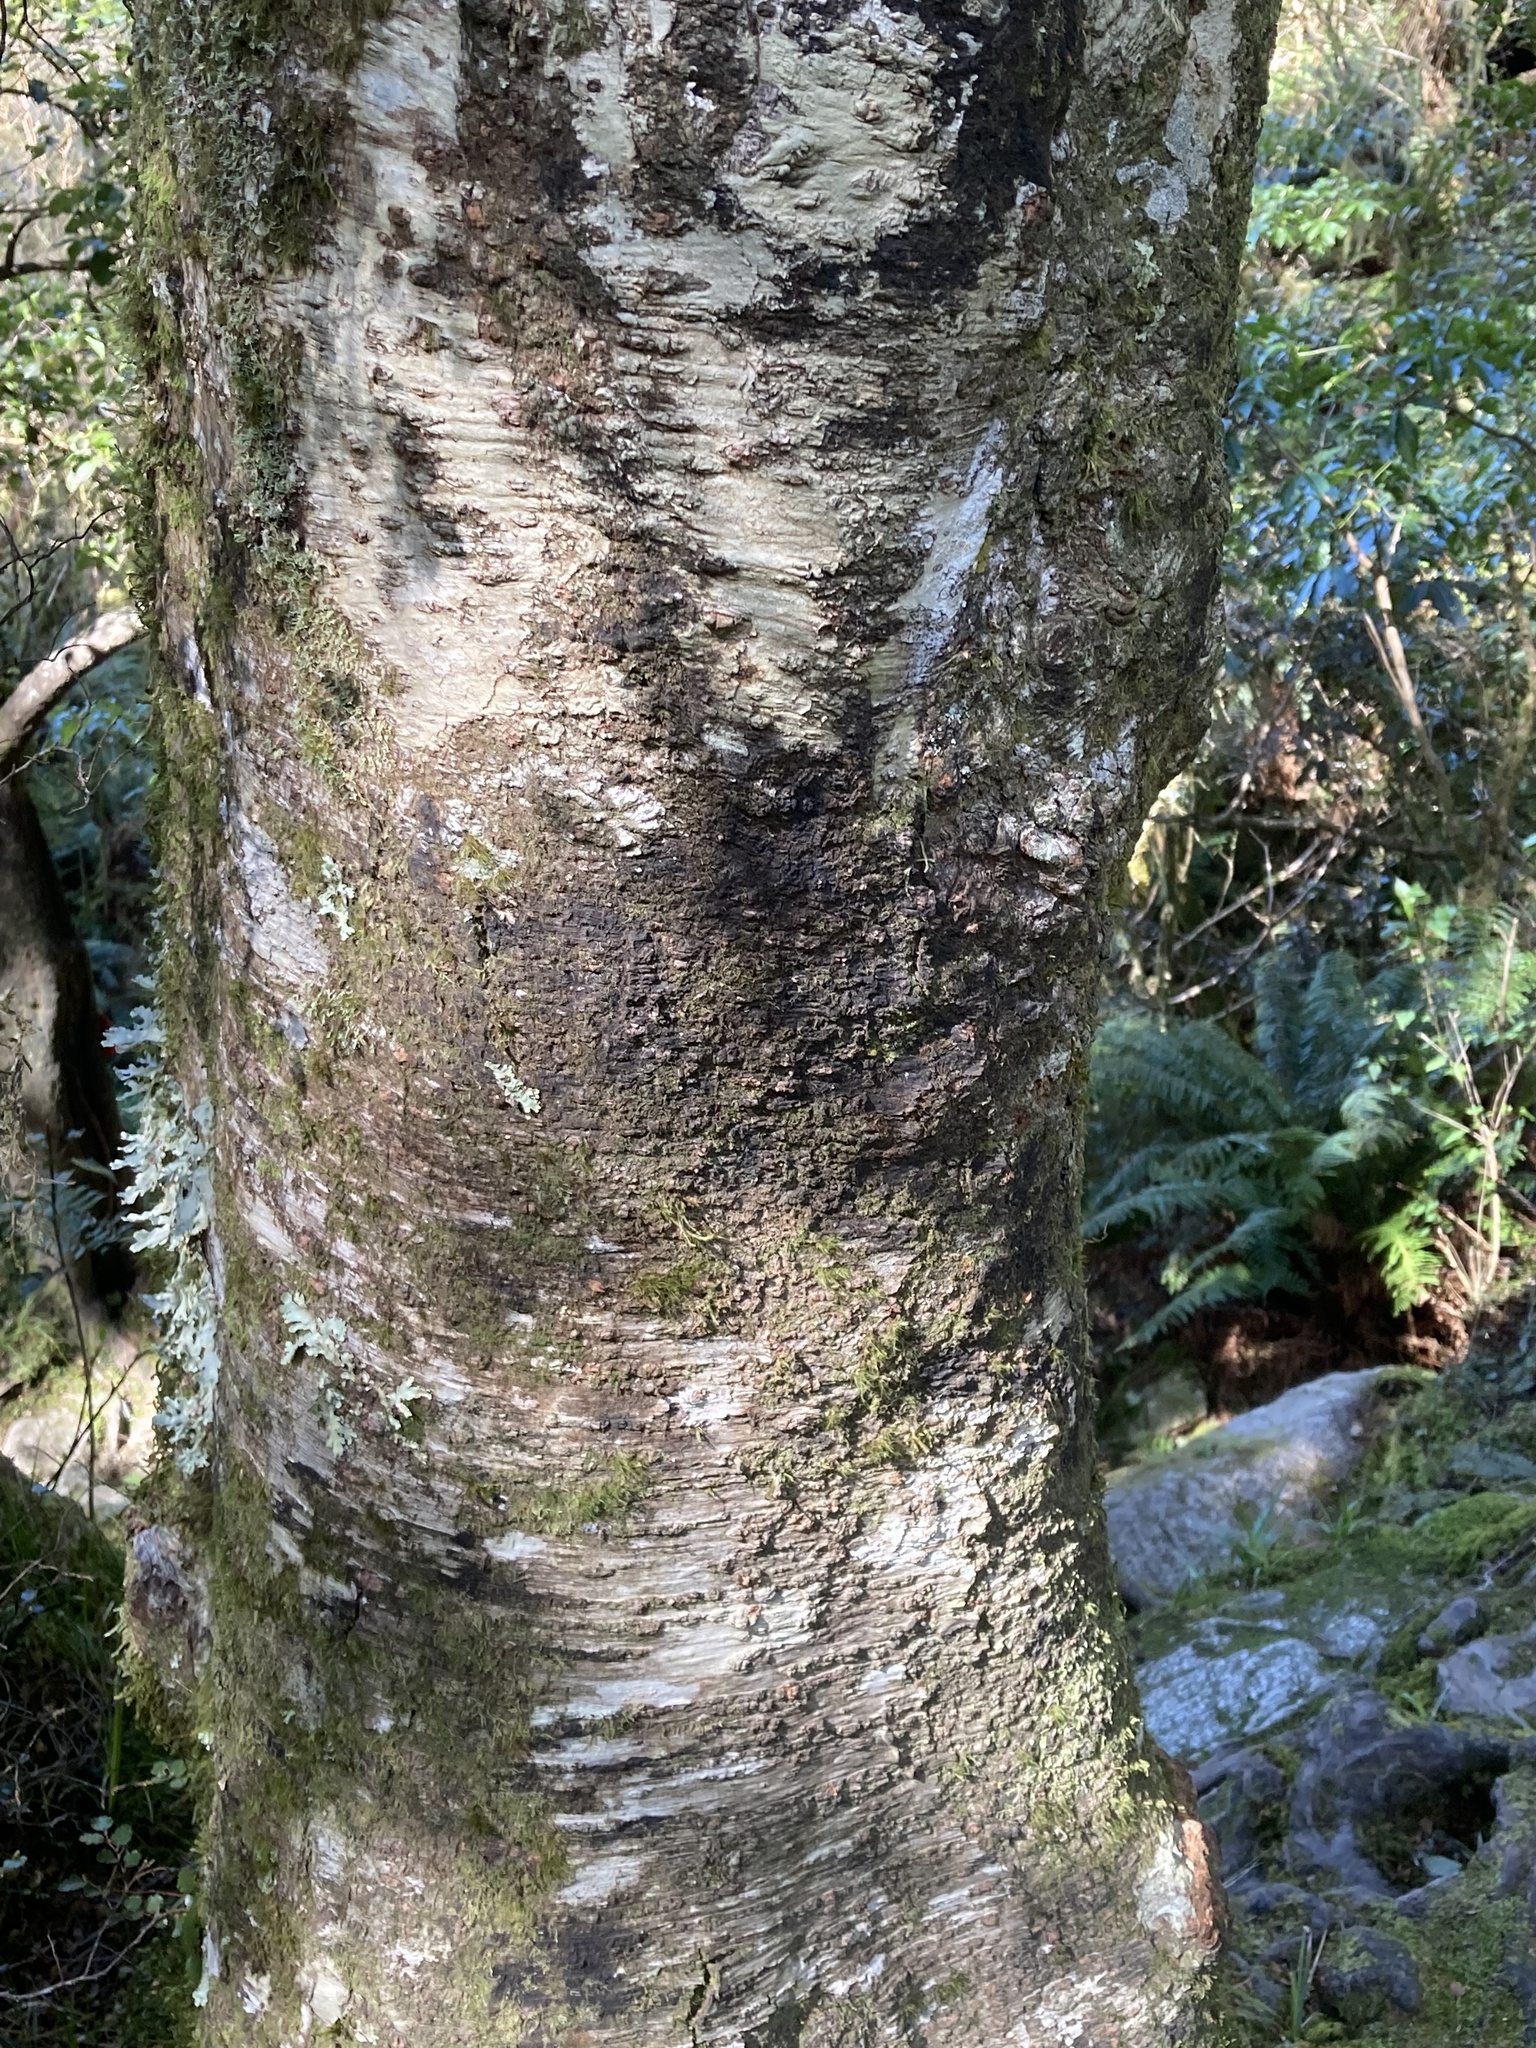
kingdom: Plantae
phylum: Tracheophyta
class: Magnoliopsida
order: Fagales
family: Nothofagaceae
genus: Nothofagus
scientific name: Nothofagus menziesii
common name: Silver beech
